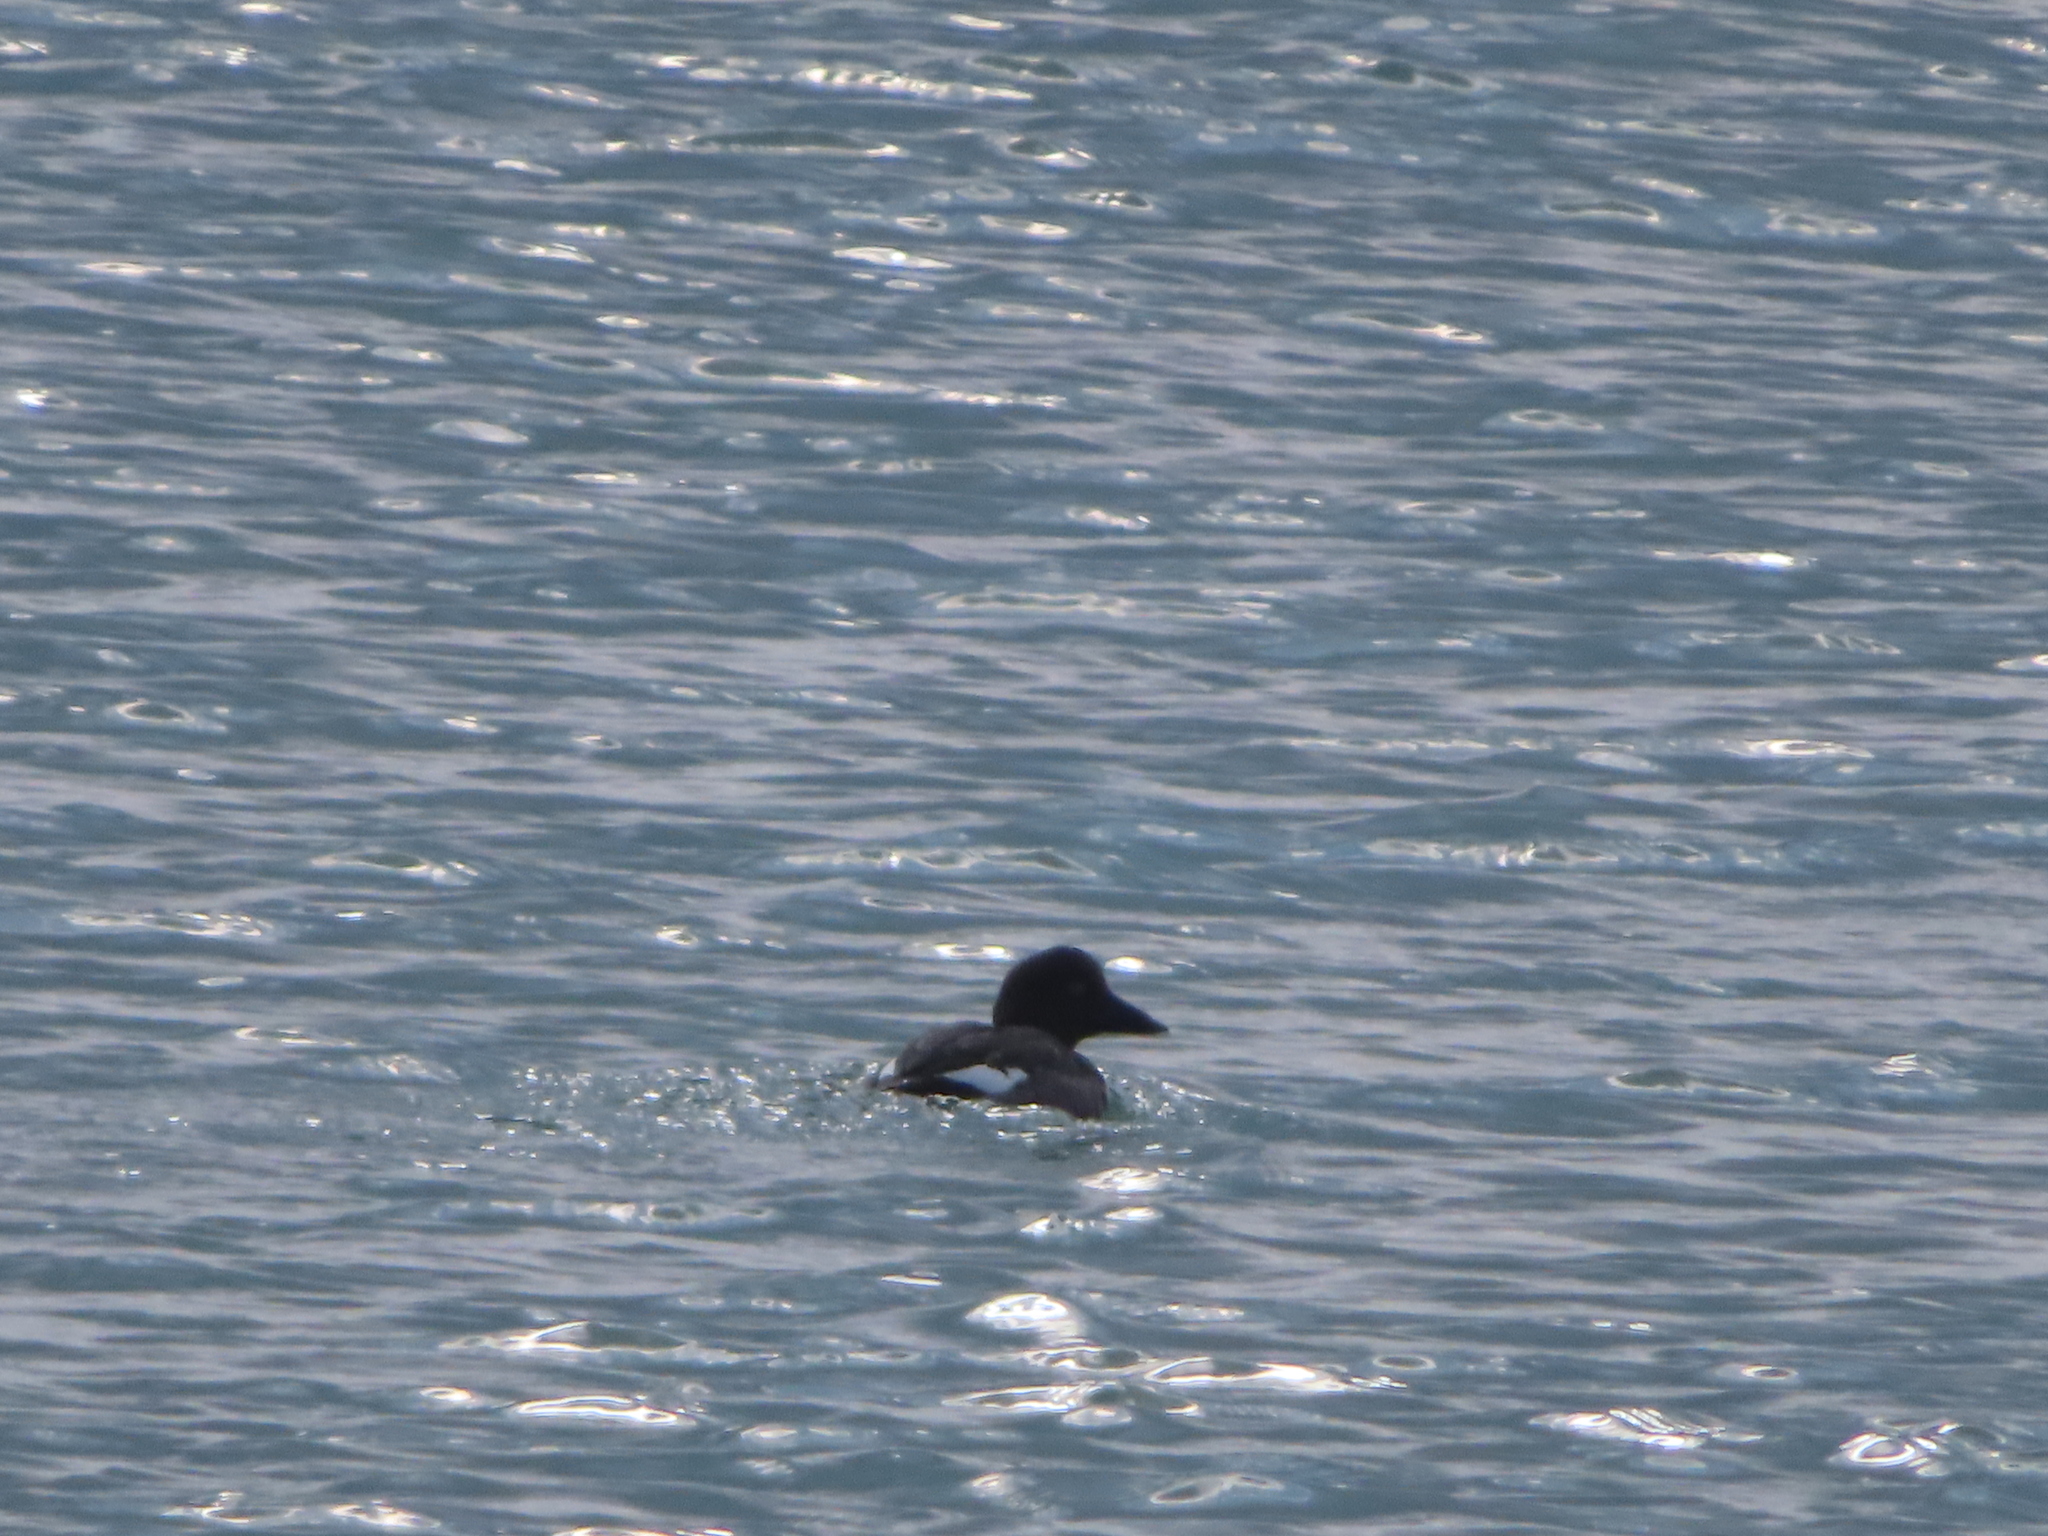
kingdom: Animalia
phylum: Chordata
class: Aves
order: Anseriformes
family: Anatidae
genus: Bucephala
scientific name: Bucephala clangula
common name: Common goldeneye
